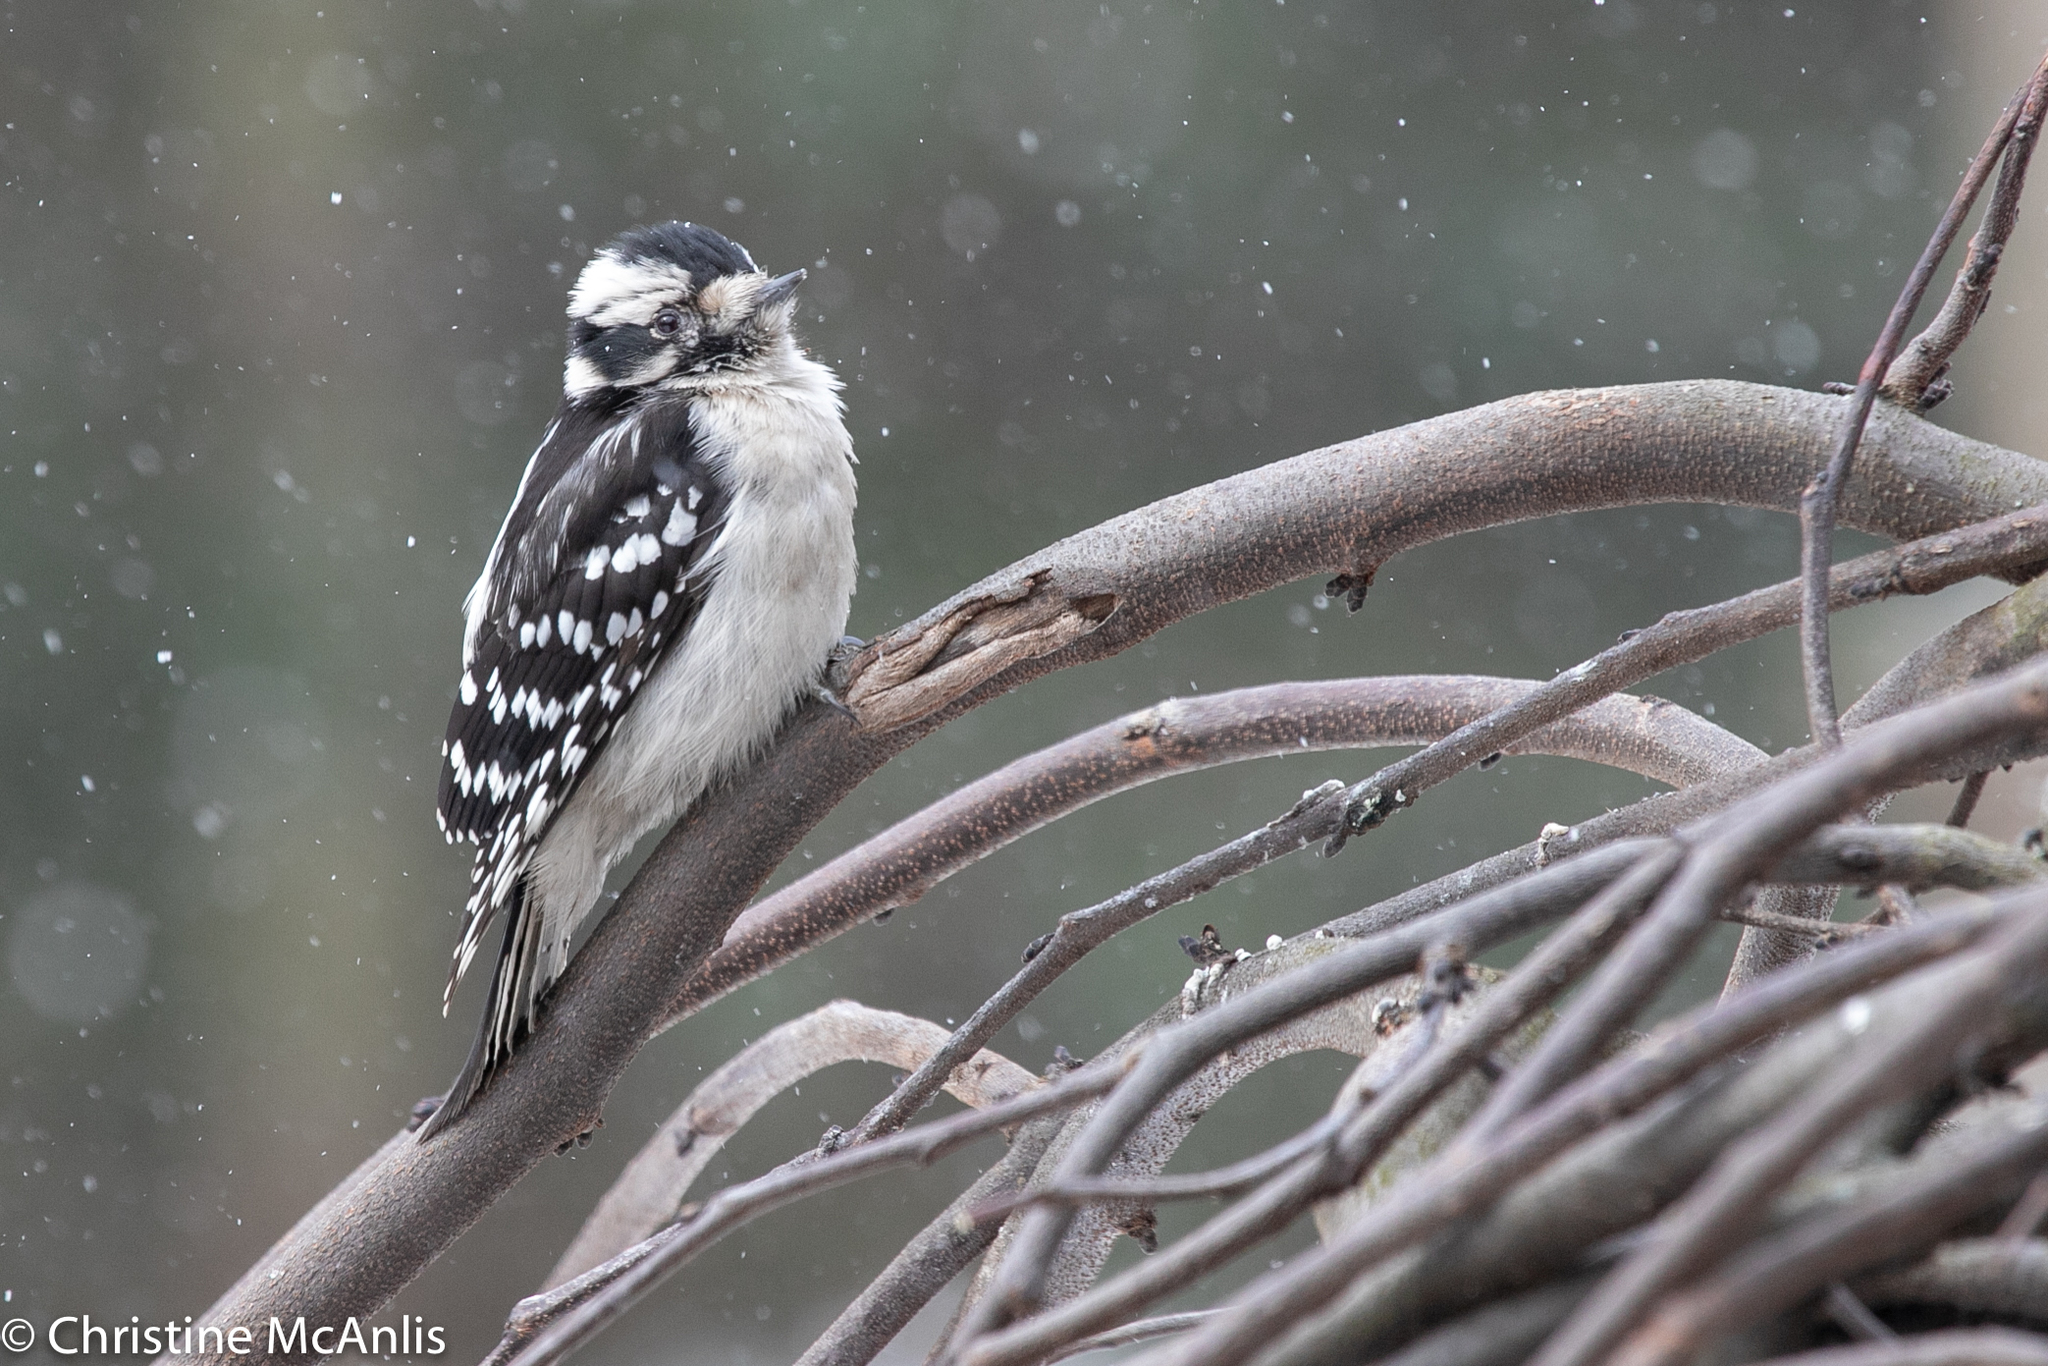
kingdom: Animalia
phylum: Chordata
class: Aves
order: Piciformes
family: Picidae
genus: Dryobates
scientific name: Dryobates pubescens
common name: Downy woodpecker
